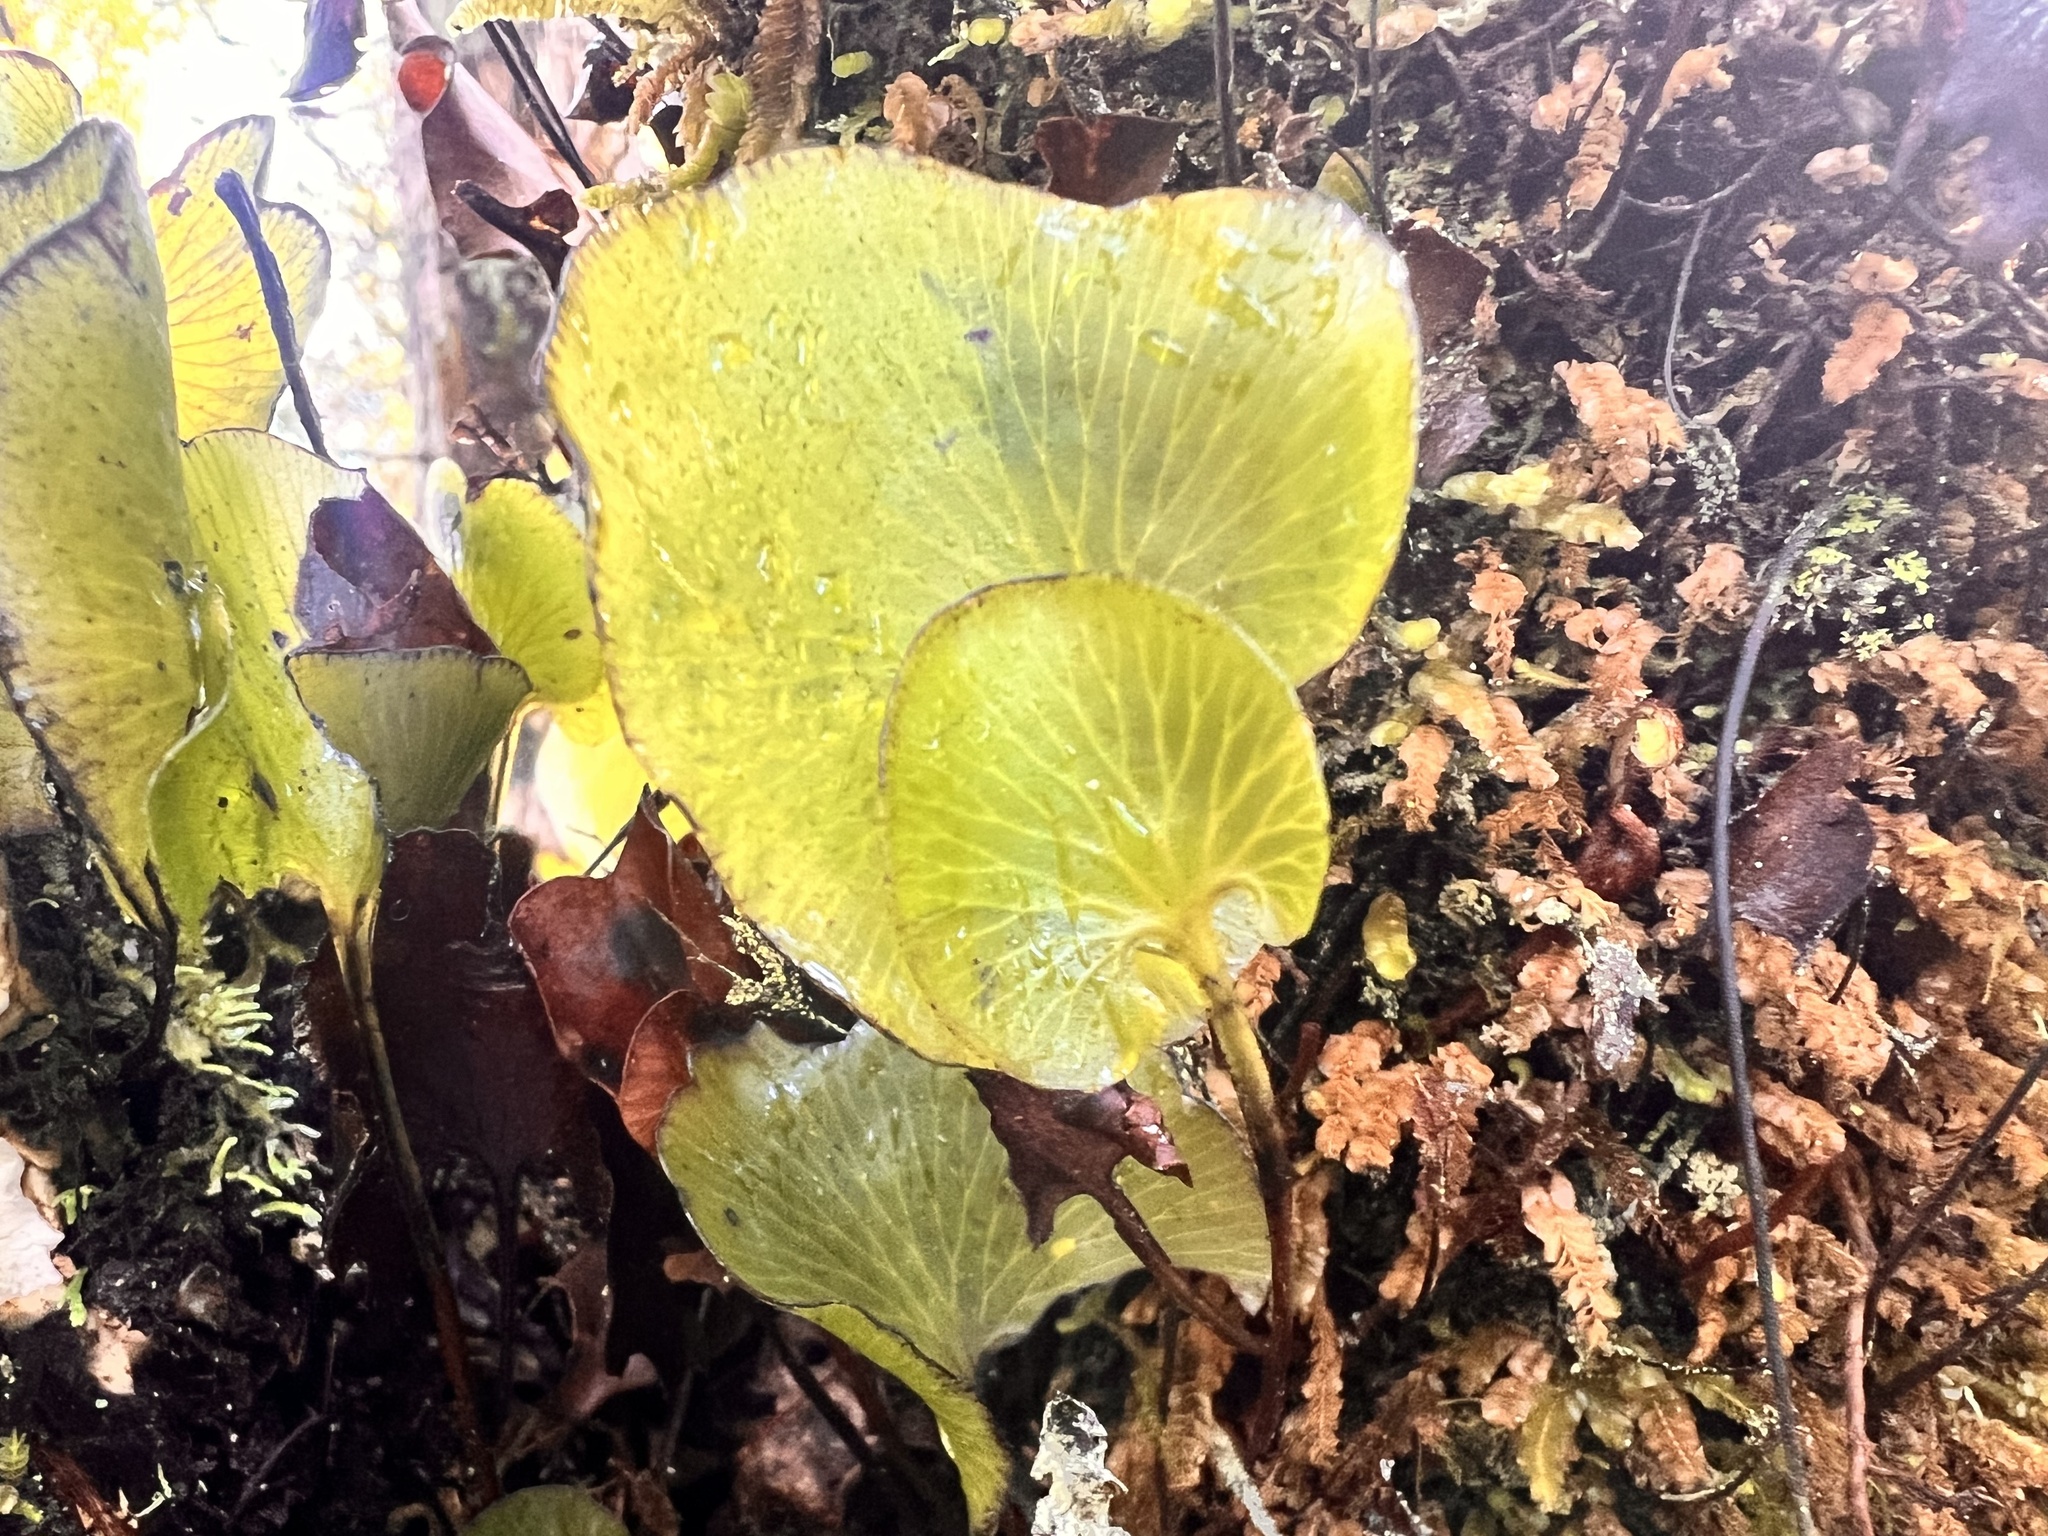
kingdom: Plantae
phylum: Tracheophyta
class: Polypodiopsida
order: Hymenophyllales
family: Hymenophyllaceae
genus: Hymenophyllum
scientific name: Hymenophyllum nephrophyllum
